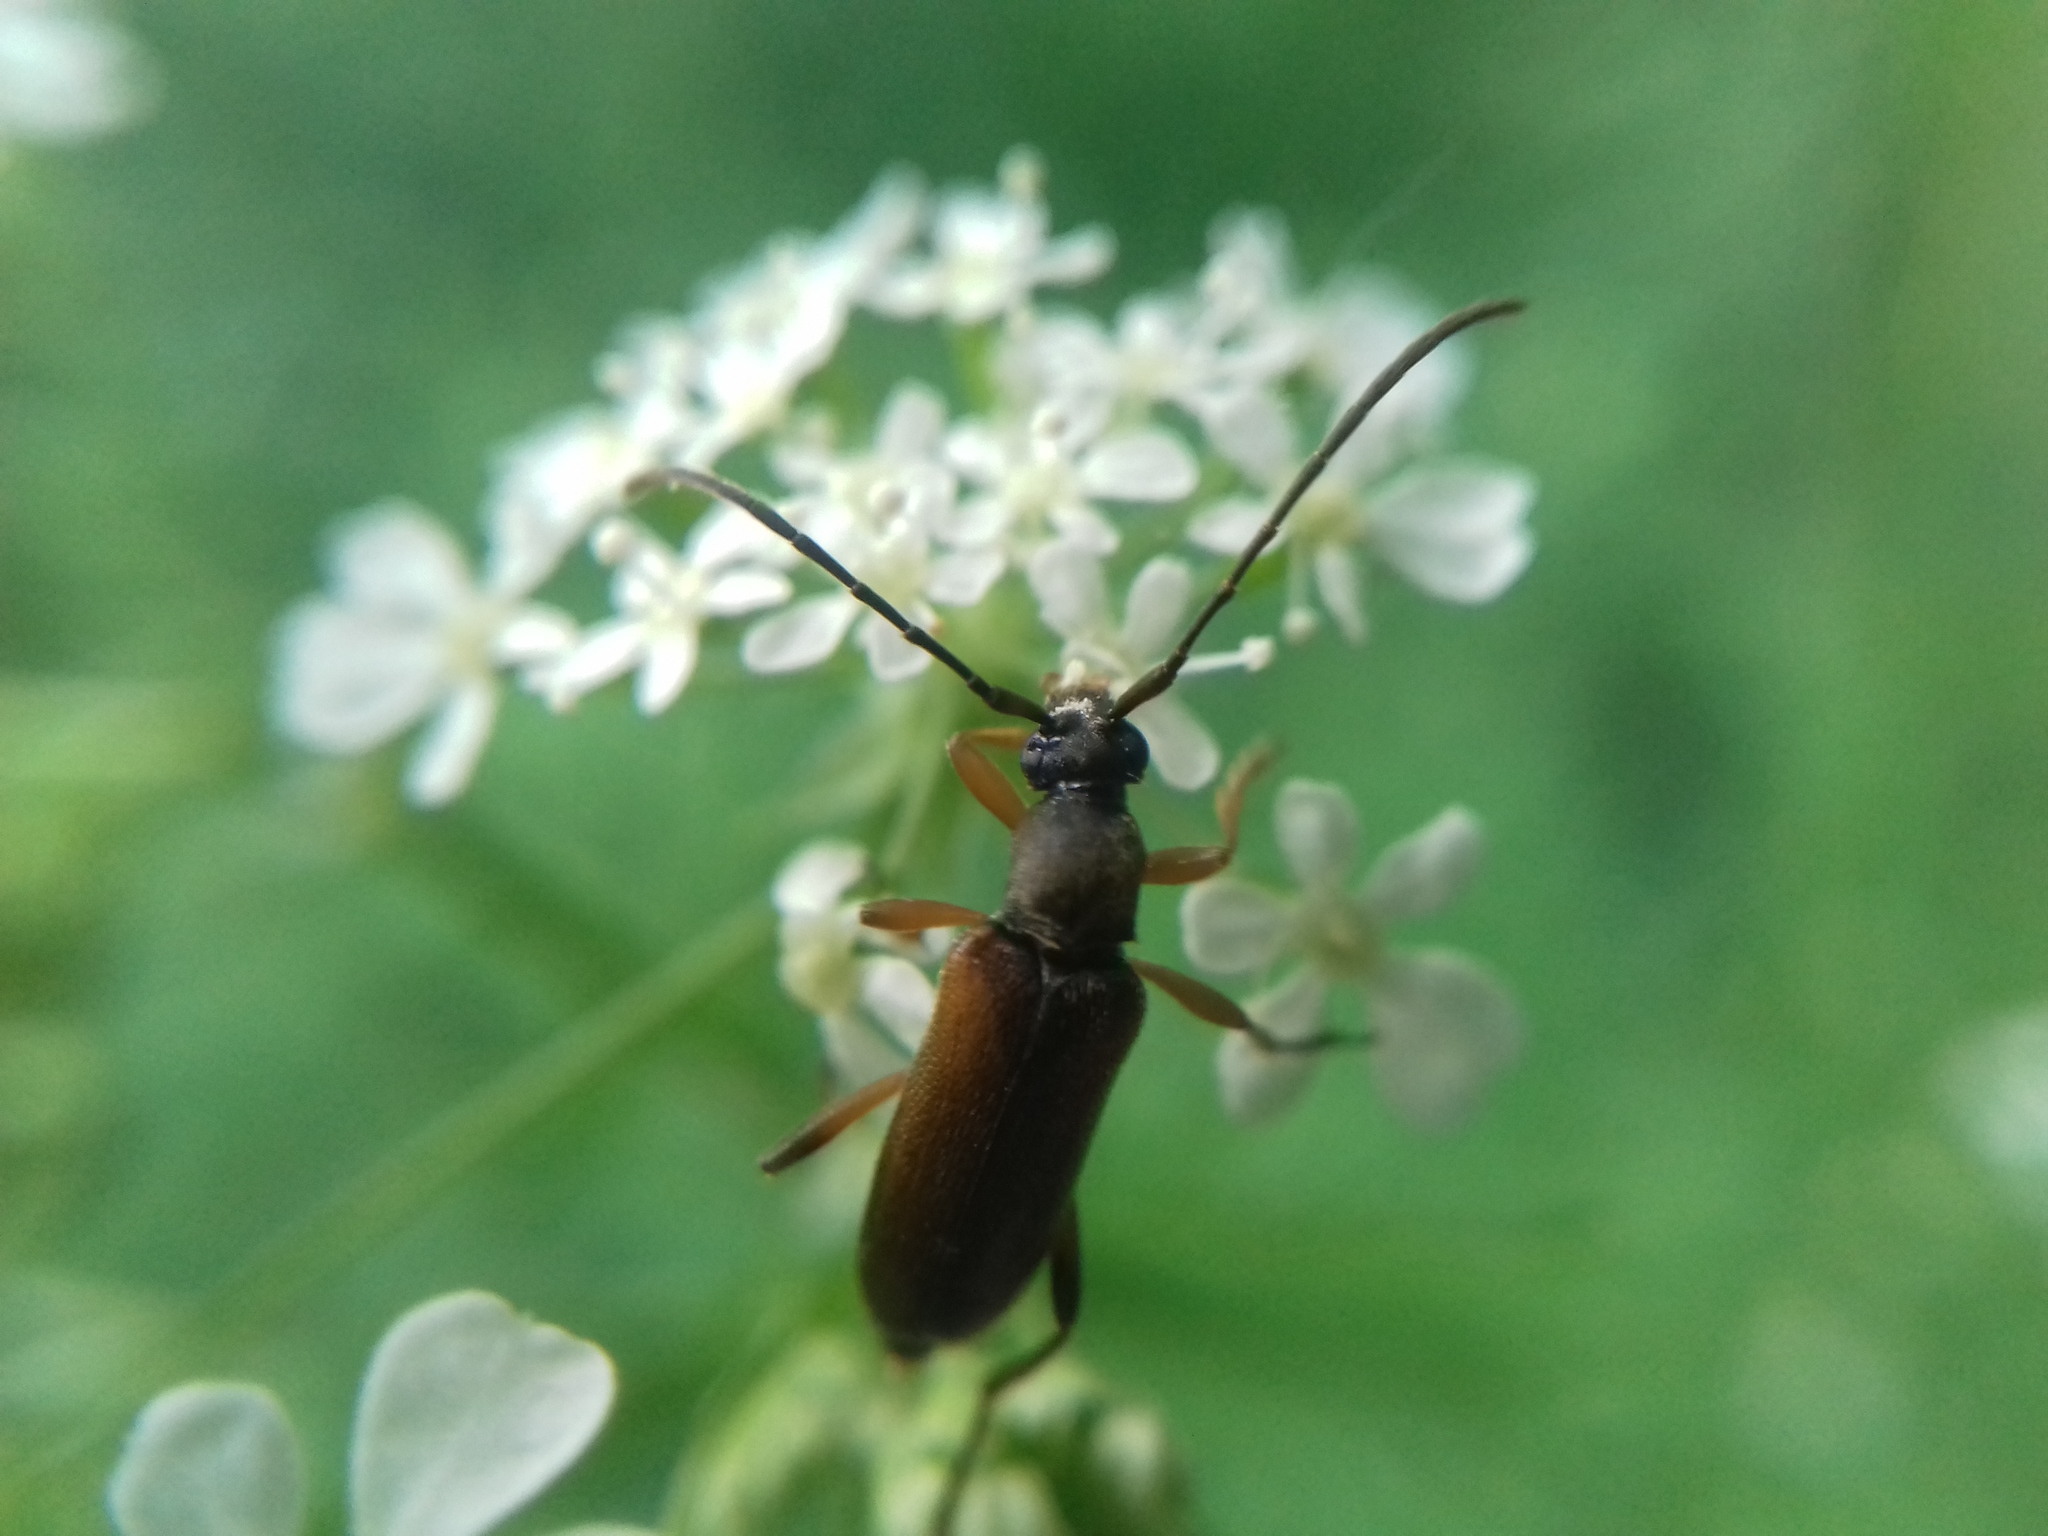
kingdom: Animalia
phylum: Arthropoda
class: Insecta
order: Coleoptera
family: Cerambycidae
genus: Alosterna
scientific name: Alosterna tabacicolor
